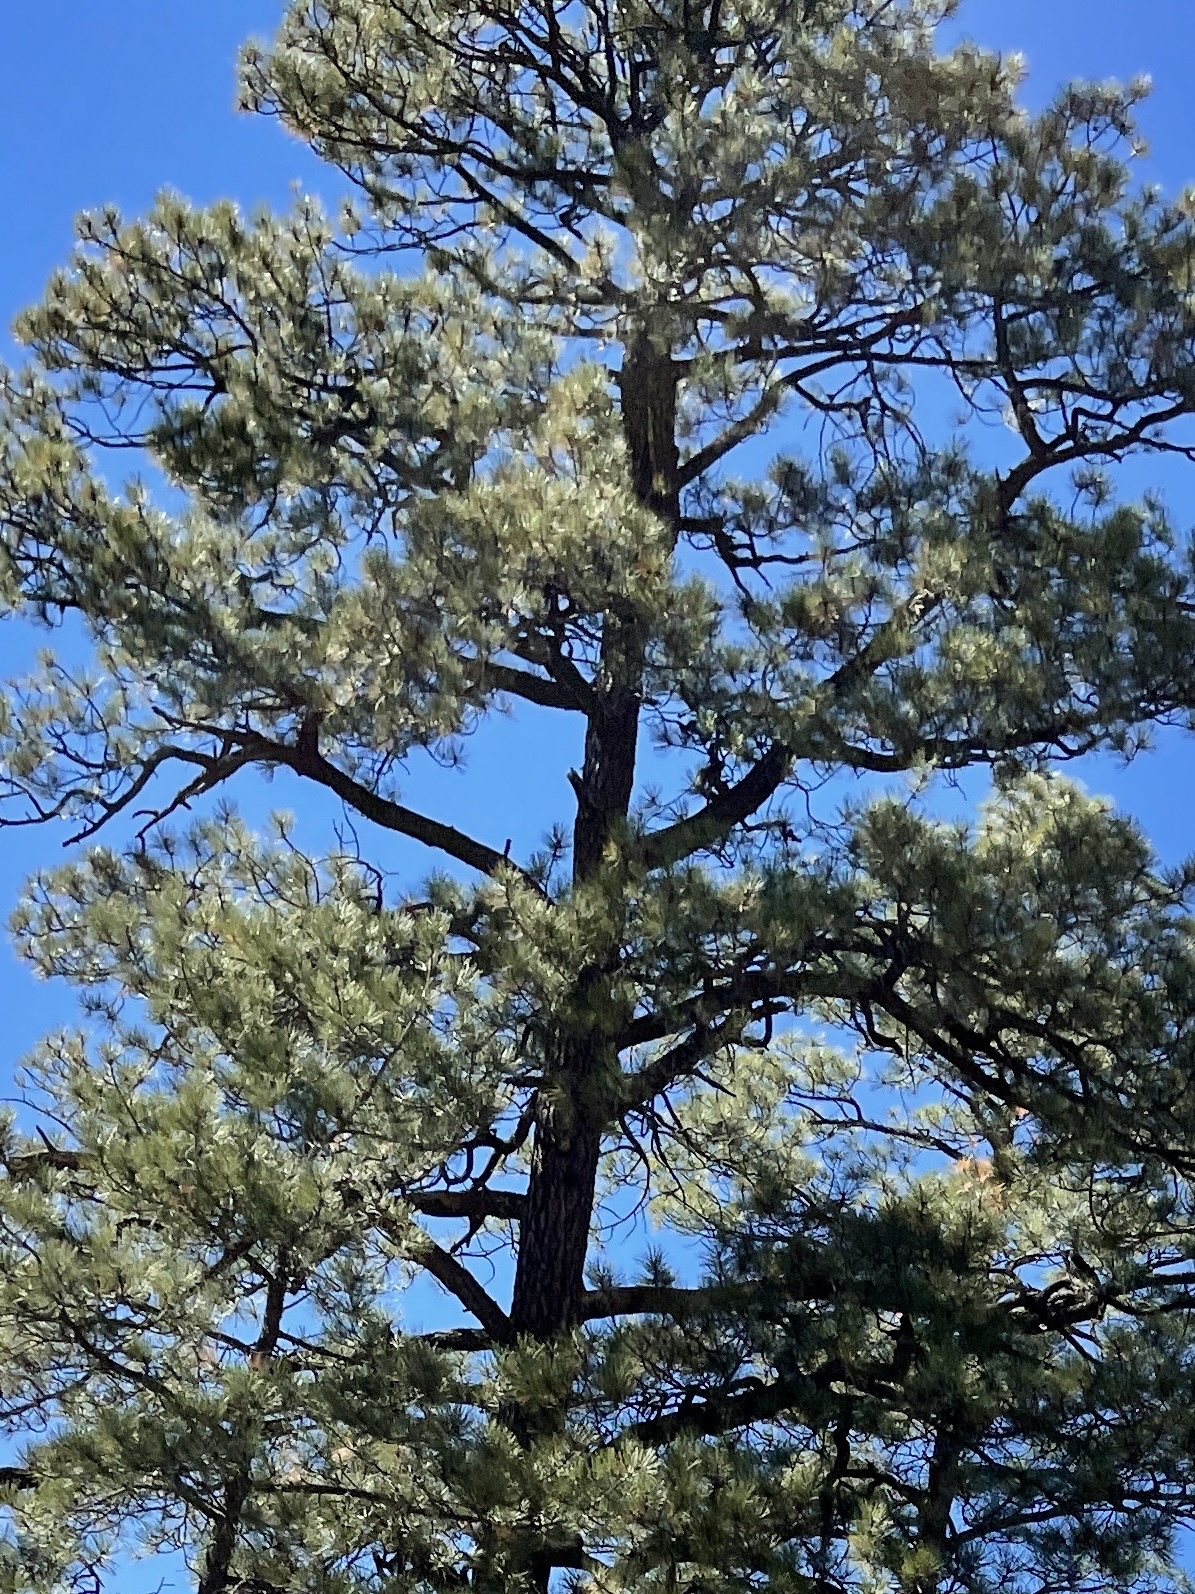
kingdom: Plantae
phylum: Tracheophyta
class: Pinopsida
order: Pinales
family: Pinaceae
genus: Pinus
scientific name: Pinus ponderosa
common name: Western yellow-pine
